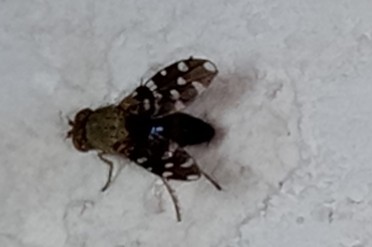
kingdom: Animalia
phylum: Arthropoda
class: Insecta
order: Diptera
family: Ephydridae
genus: Actocetor
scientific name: Actocetor indicus
